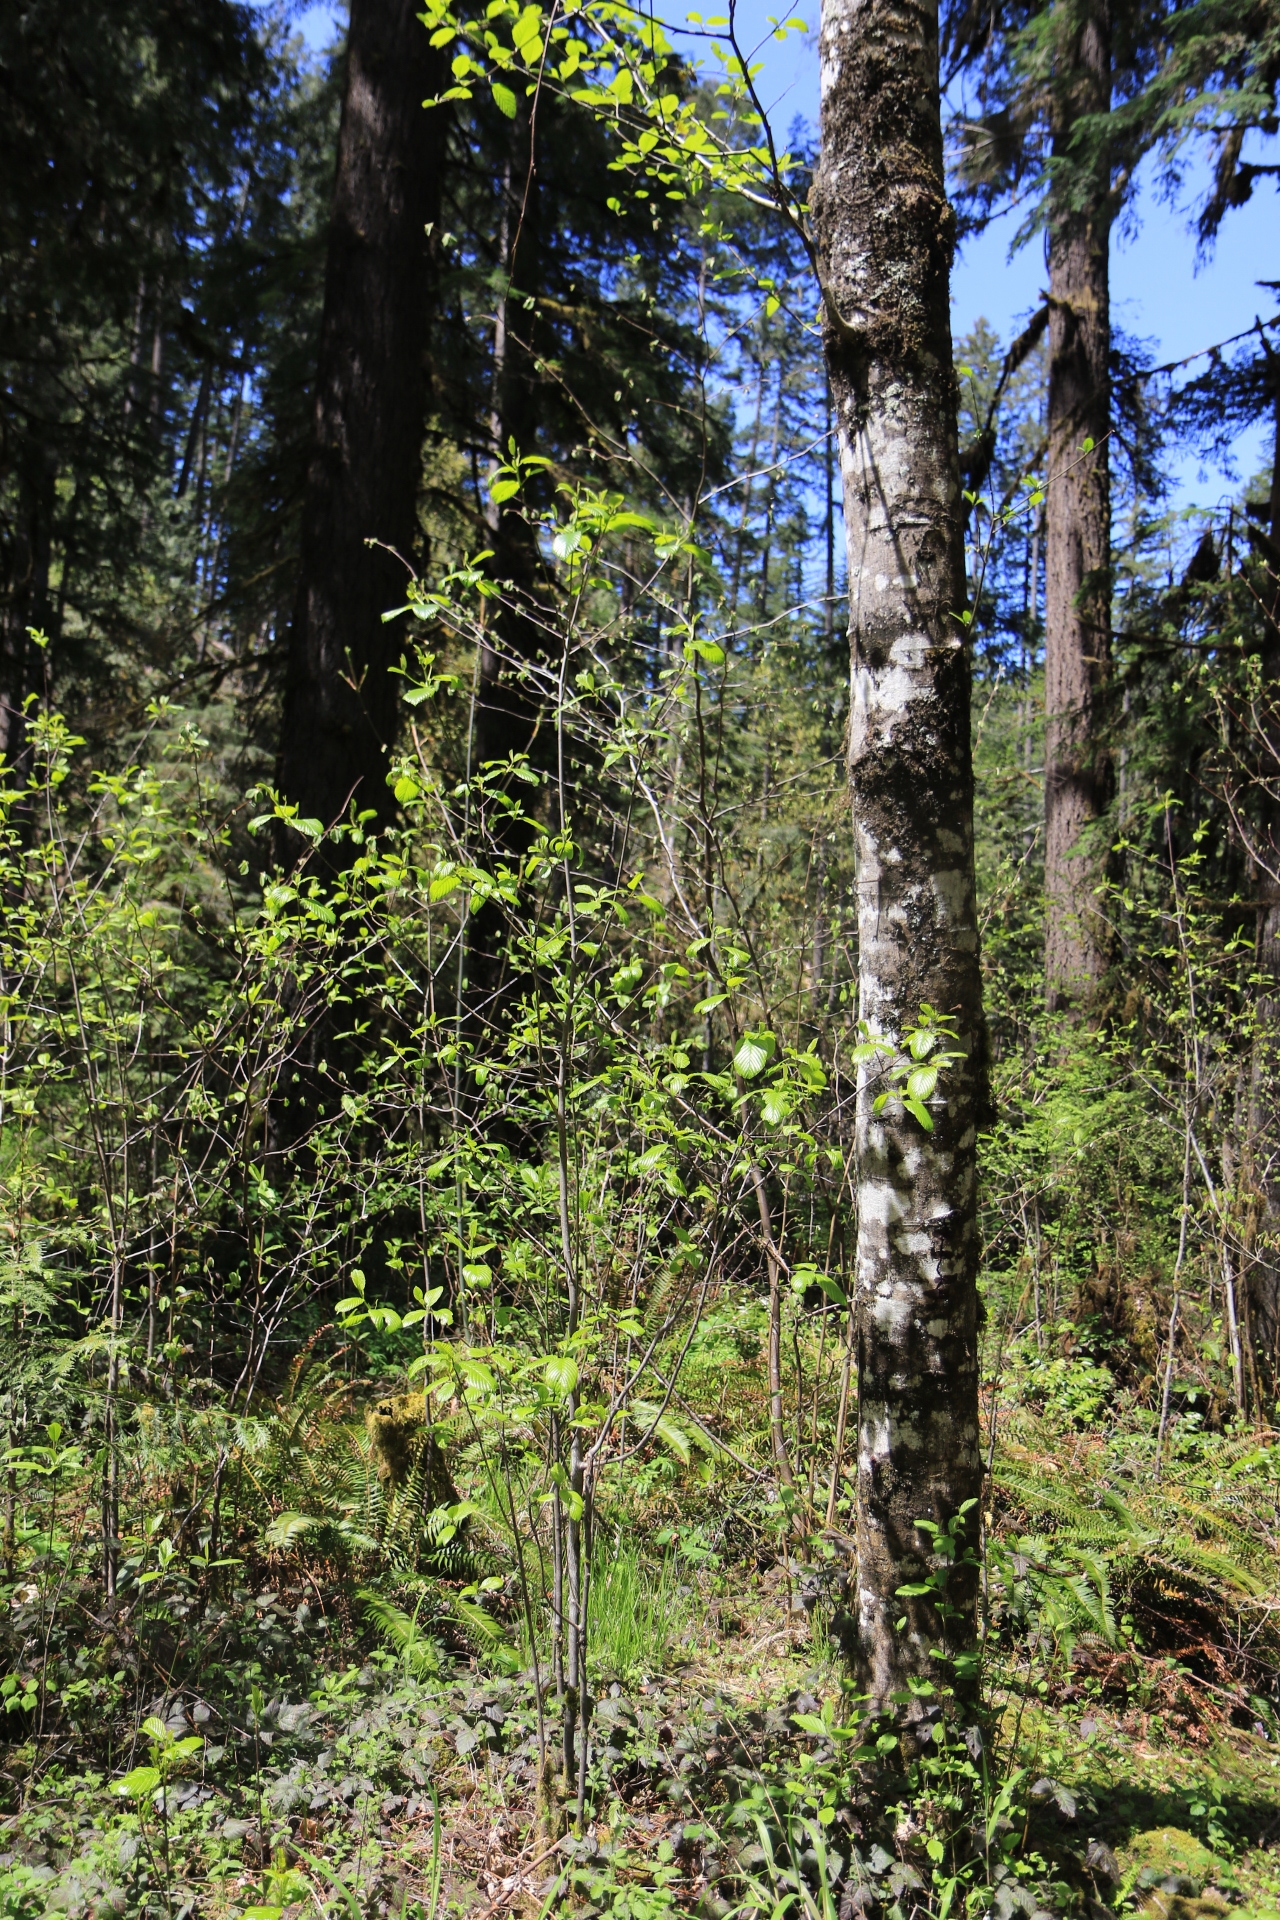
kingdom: Plantae
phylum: Tracheophyta
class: Magnoliopsida
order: Rosales
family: Rhamnaceae
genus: Frangula
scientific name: Frangula purshiana
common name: Cascara buckthorn
